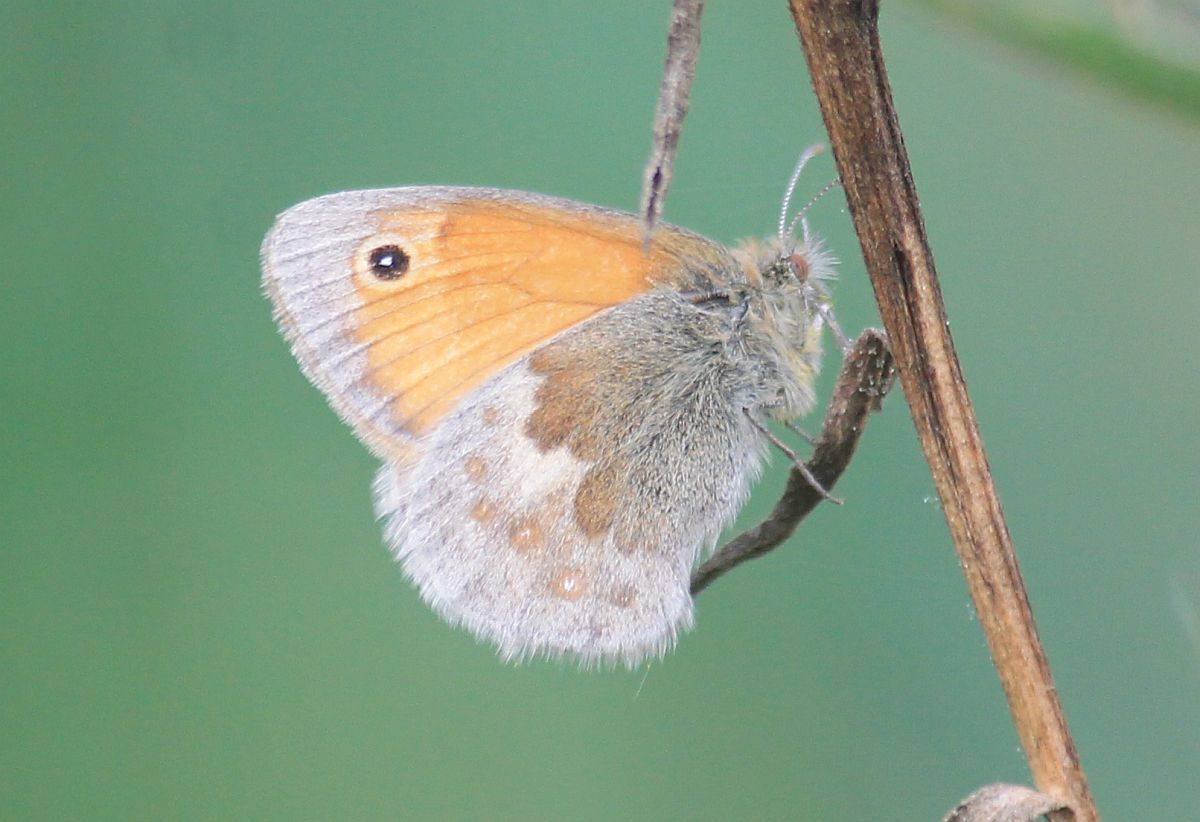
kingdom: Animalia
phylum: Arthropoda
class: Insecta
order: Lepidoptera
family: Nymphalidae
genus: Coenonympha
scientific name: Coenonympha pamphilus
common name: Small heath
